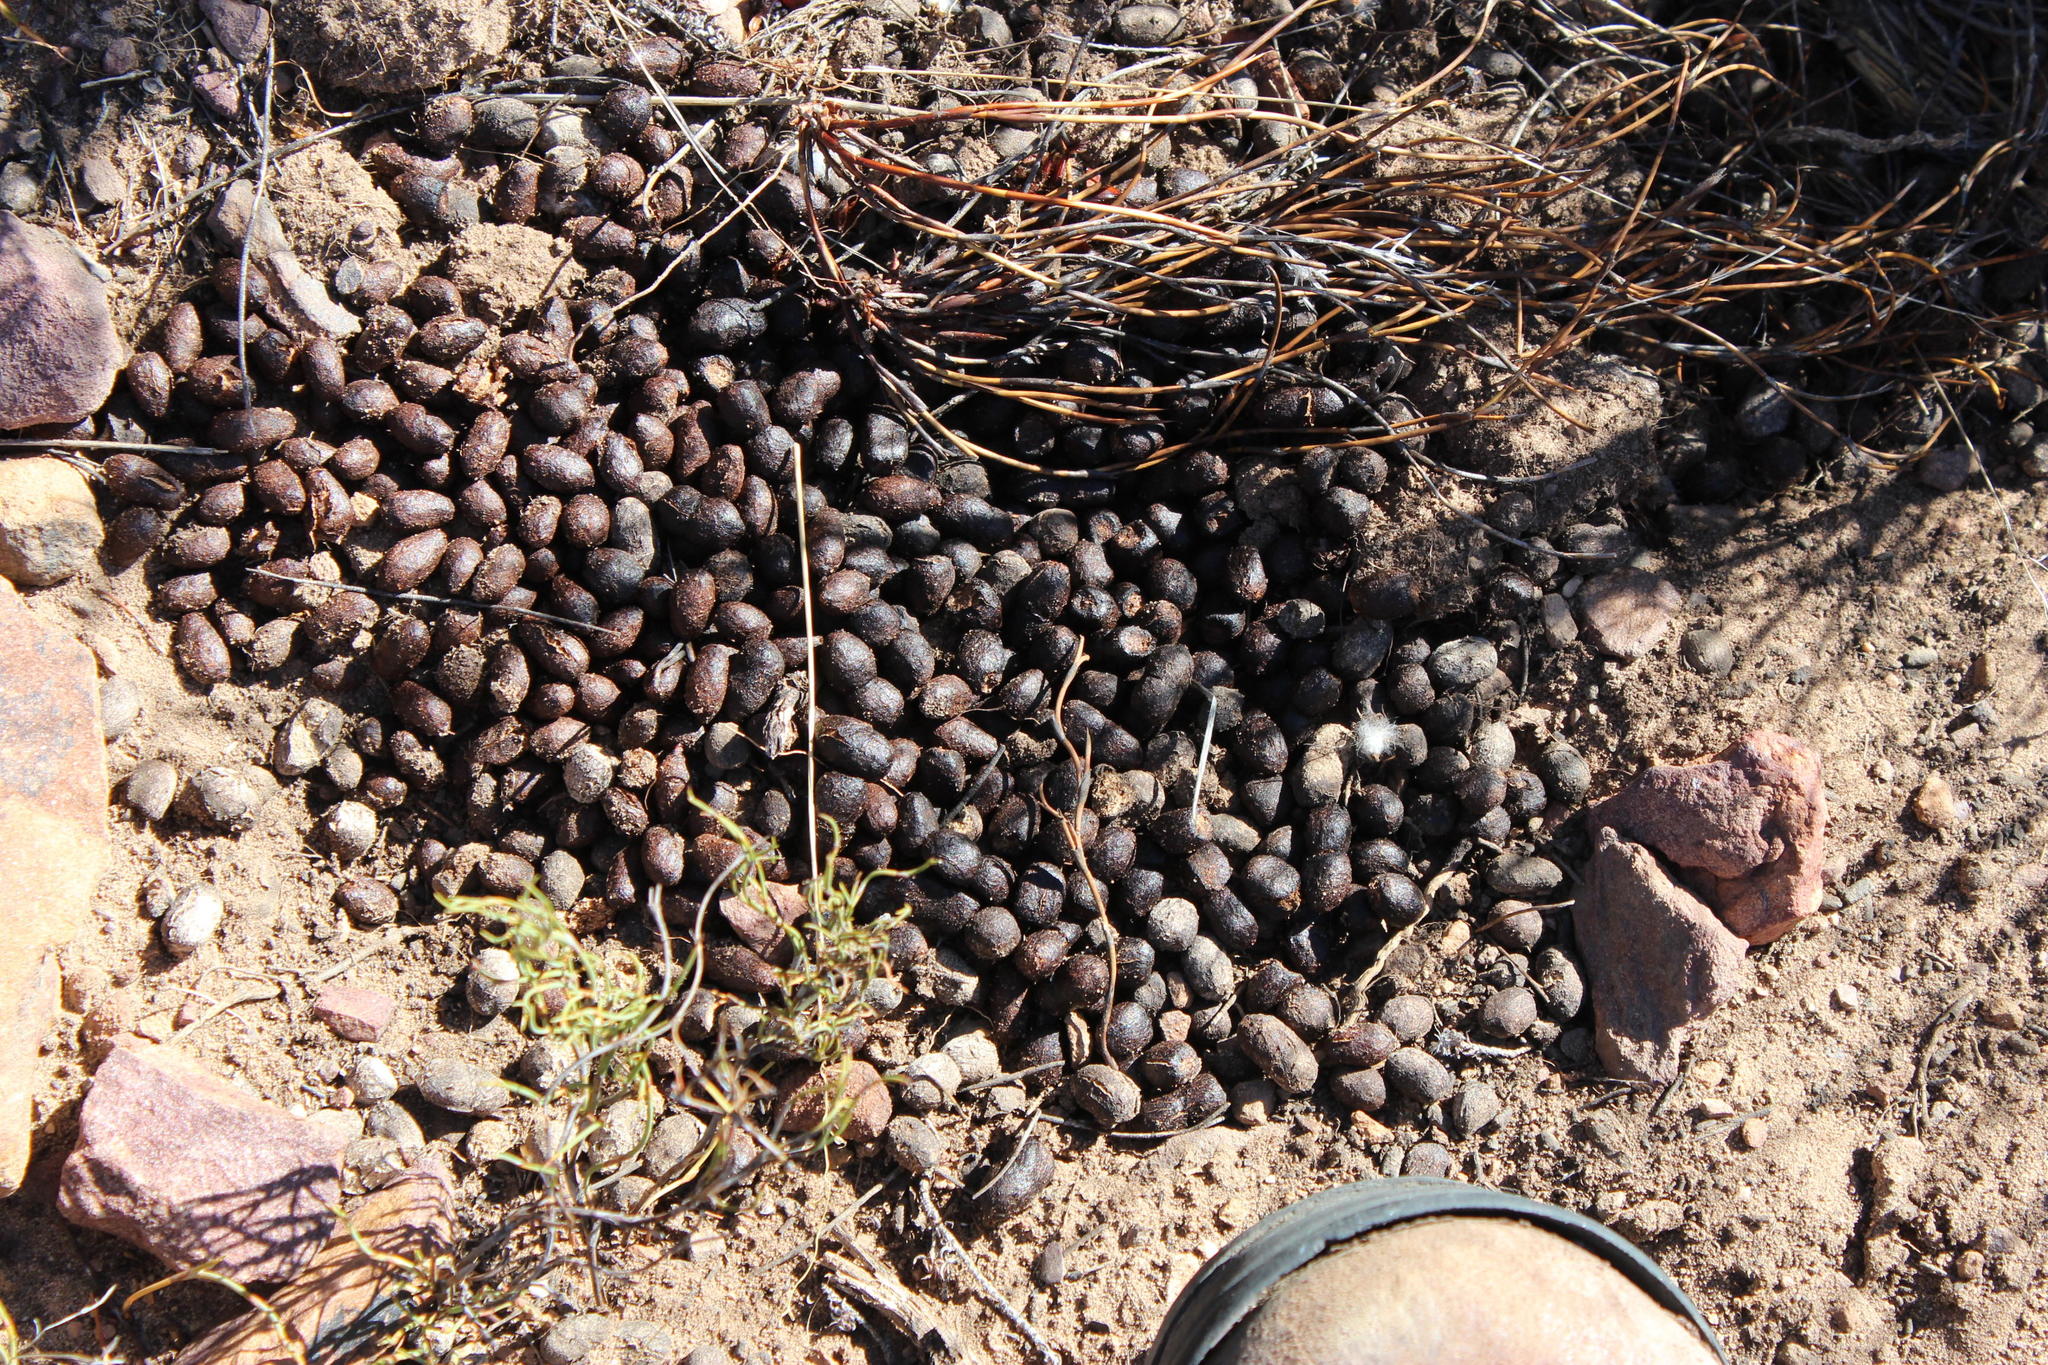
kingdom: Animalia
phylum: Chordata
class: Mammalia
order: Artiodactyla
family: Bovidae
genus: Oreotragus
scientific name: Oreotragus oreotragus
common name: Klipspringer
